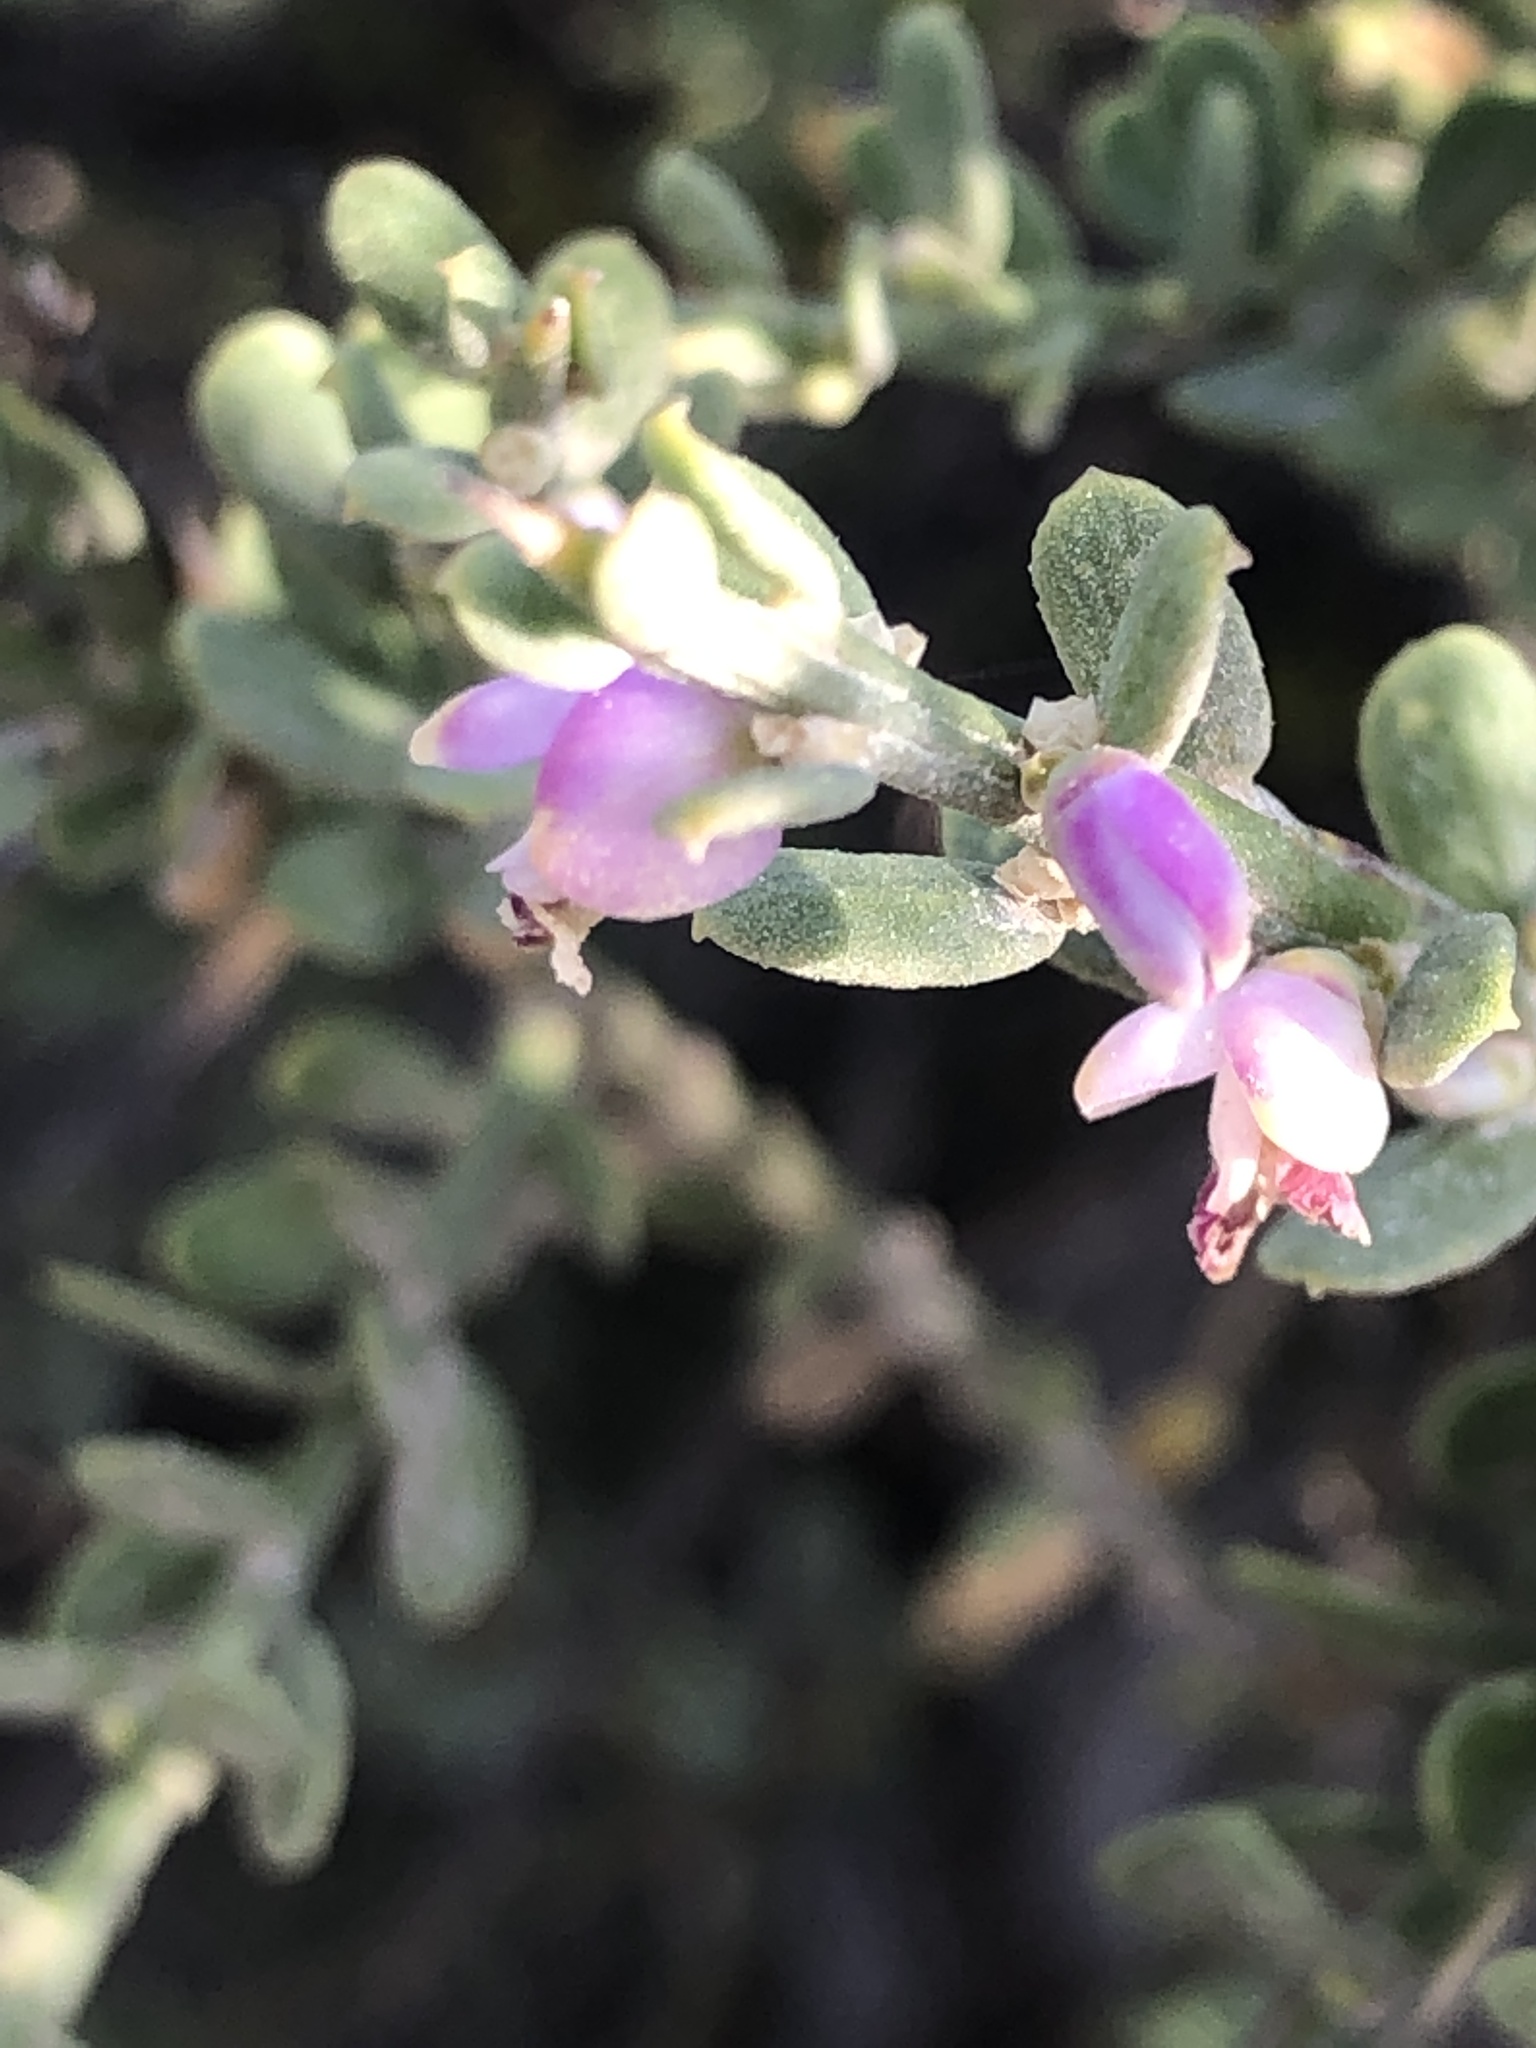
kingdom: Plantae
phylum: Tracheophyta
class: Magnoliopsida
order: Fabales
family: Polygalaceae
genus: Muraltia
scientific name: Muraltia spinosa
